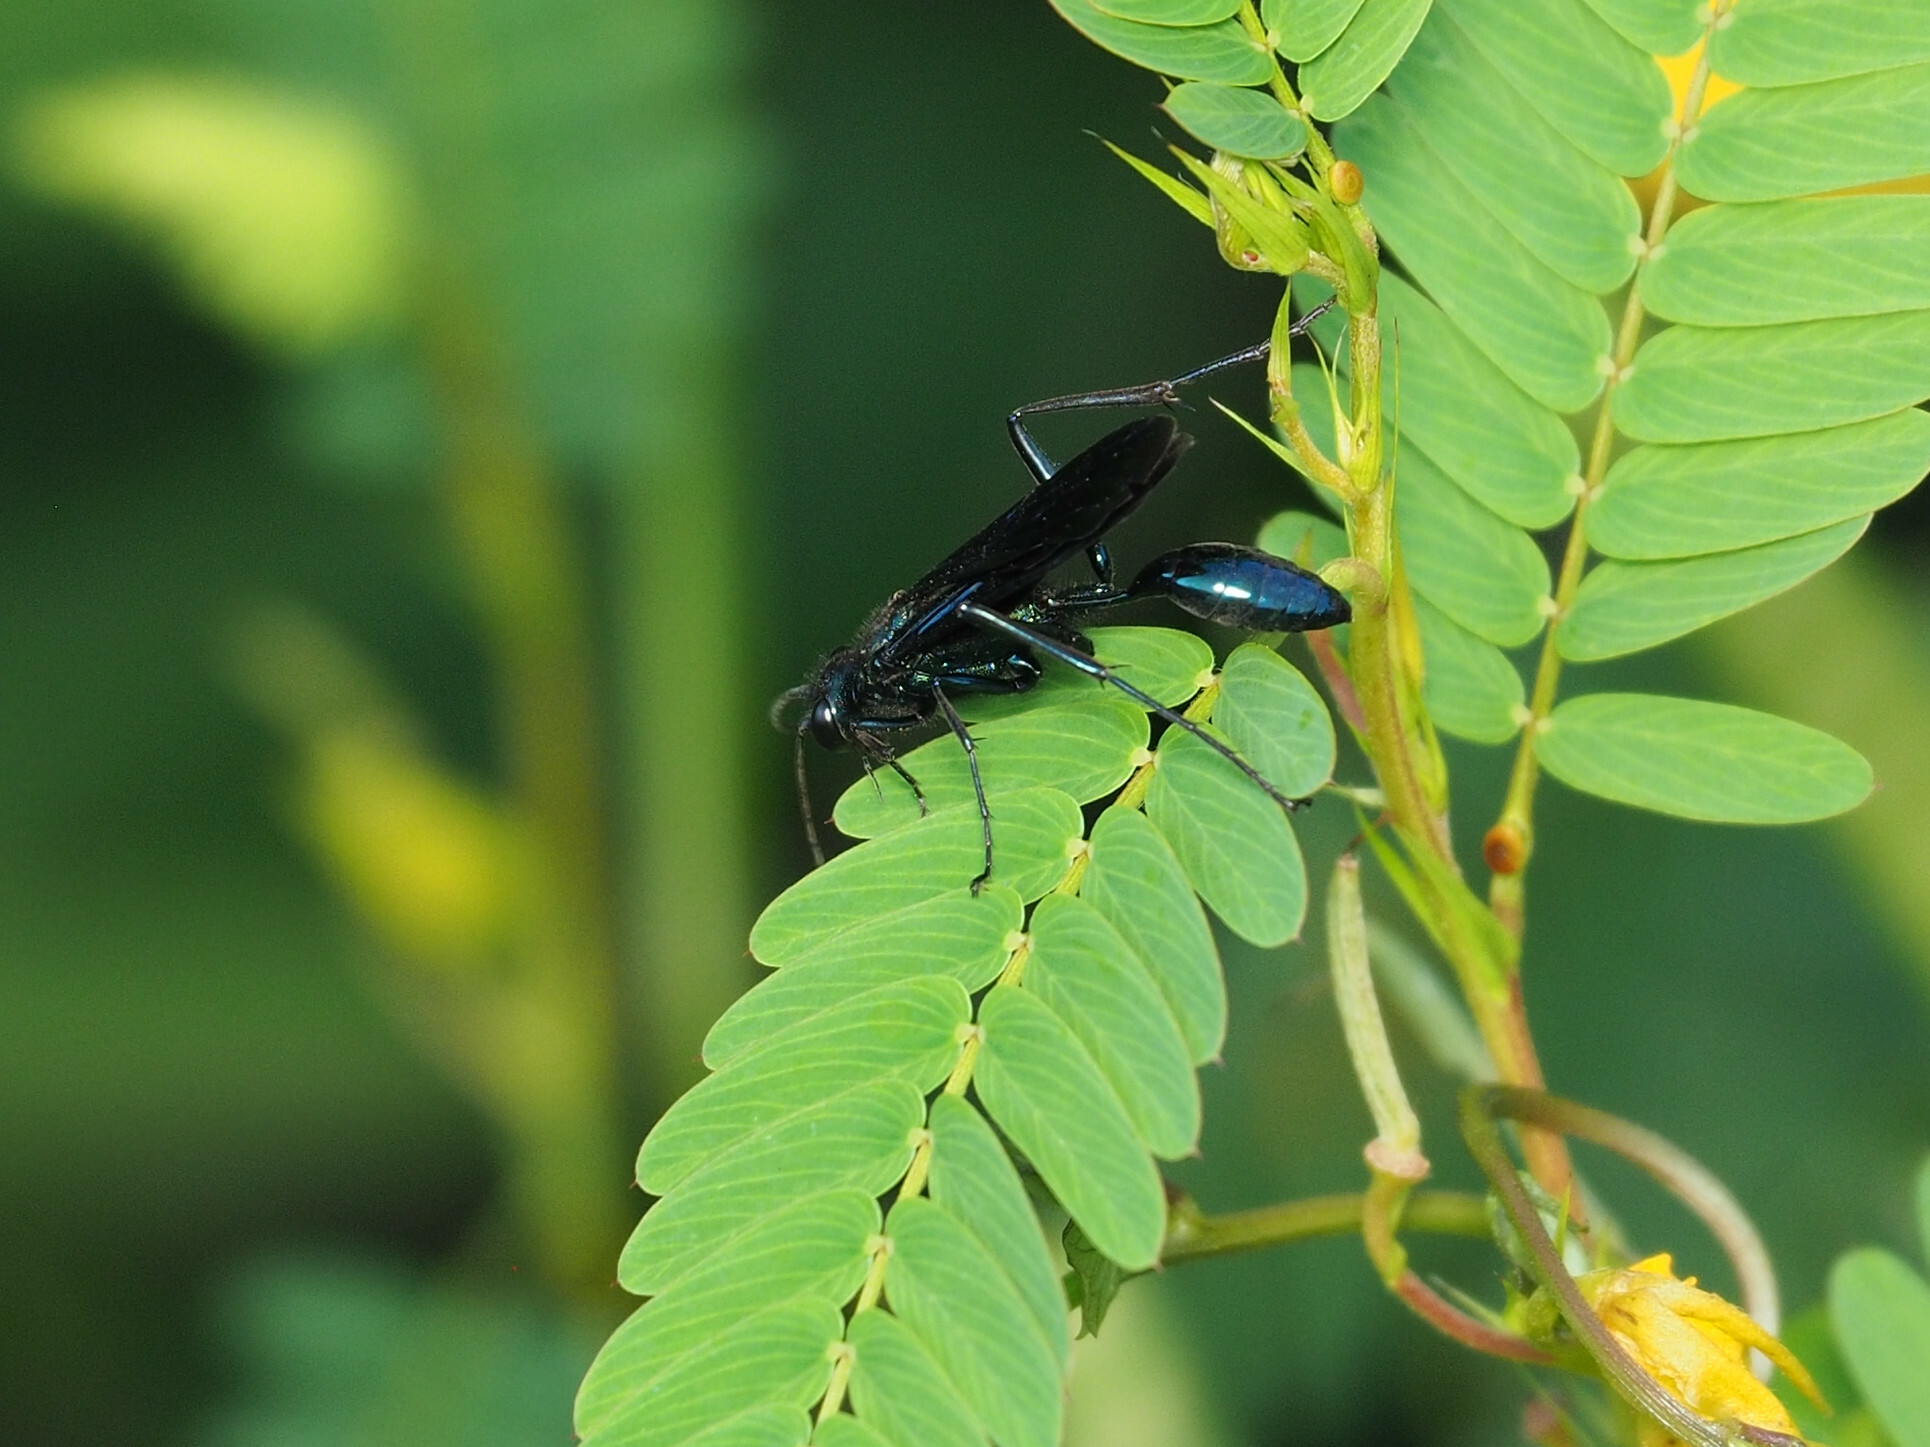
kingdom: Animalia
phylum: Arthropoda
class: Insecta
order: Hymenoptera
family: Sphecidae
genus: Chalybion
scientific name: Chalybion californicum
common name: Mud dauber
